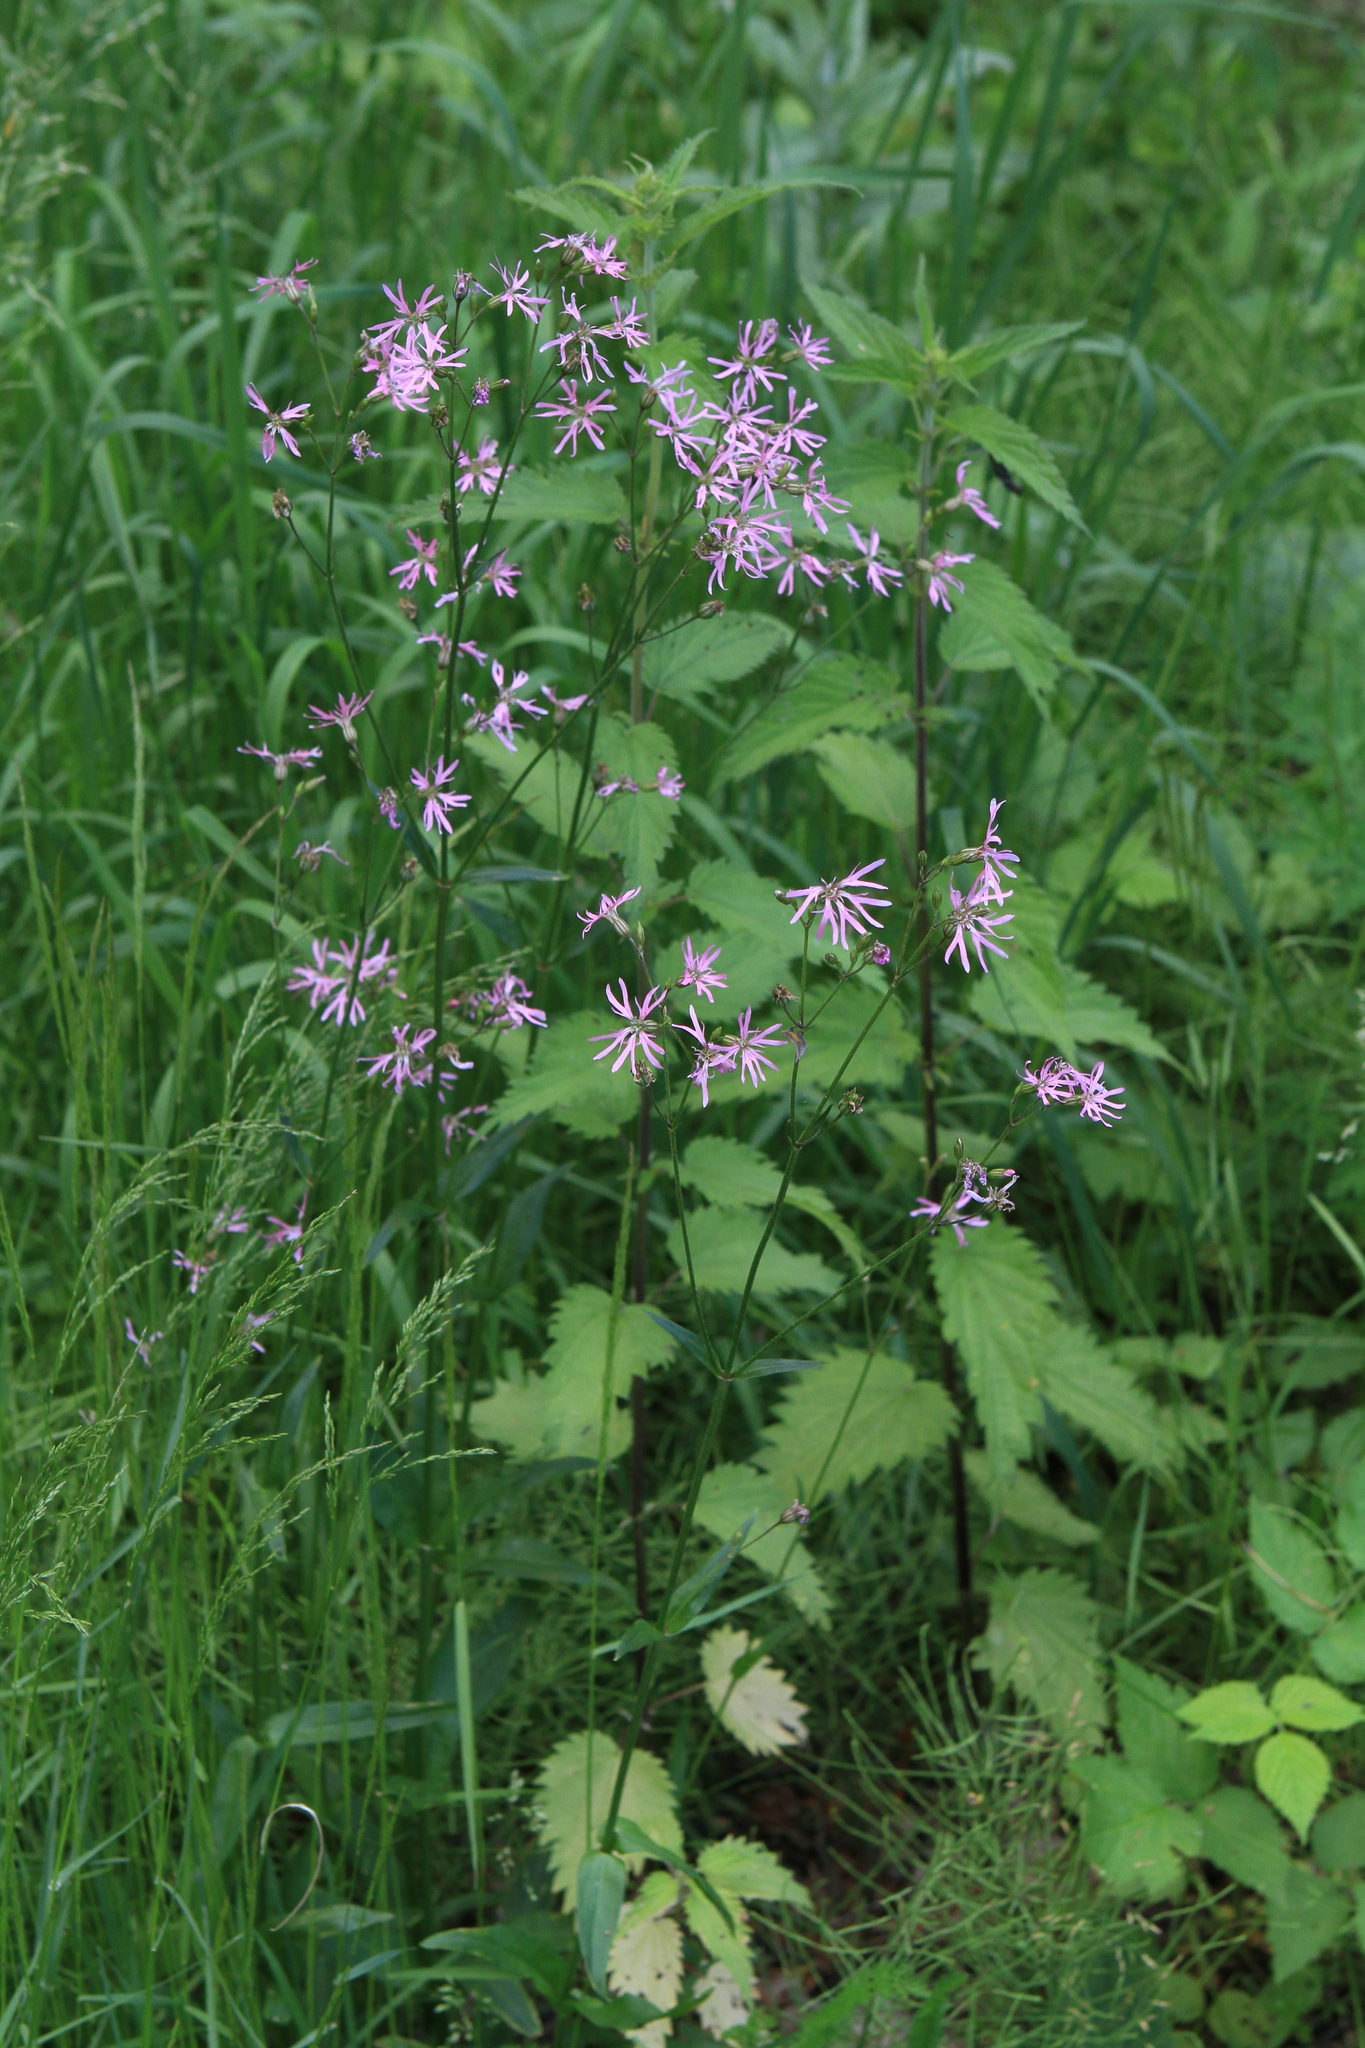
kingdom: Plantae
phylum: Tracheophyta
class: Magnoliopsida
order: Caryophyllales
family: Caryophyllaceae
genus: Silene
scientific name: Silene flos-cuculi
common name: Ragged-robin
